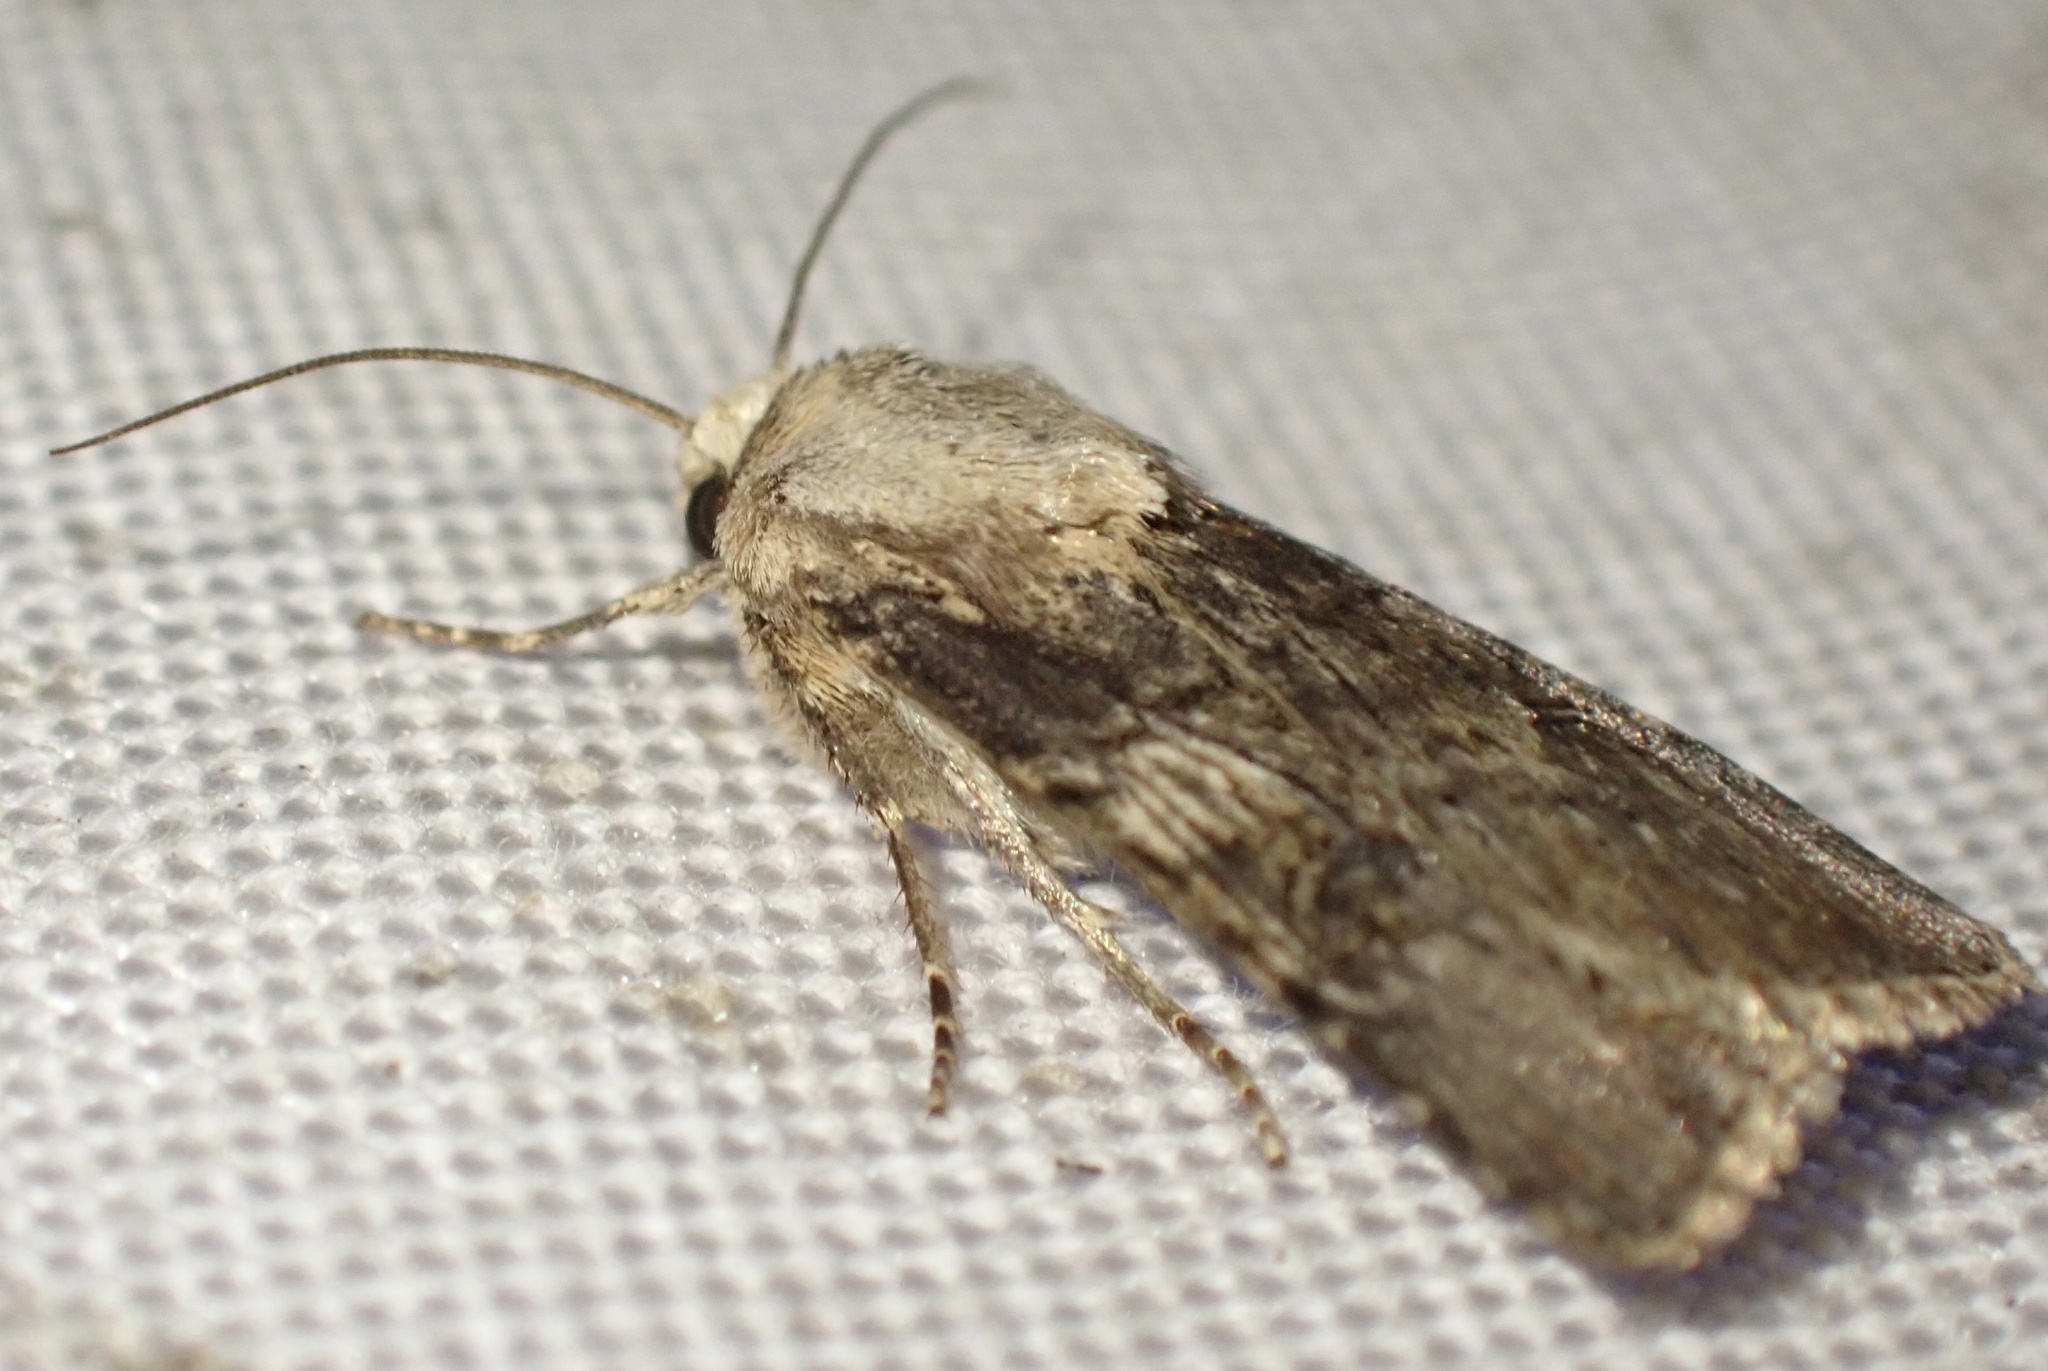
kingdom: Animalia
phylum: Arthropoda
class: Insecta
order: Lepidoptera
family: Noctuidae
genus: Agrotis
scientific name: Agrotis puta
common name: Shuttle-shaped dart
